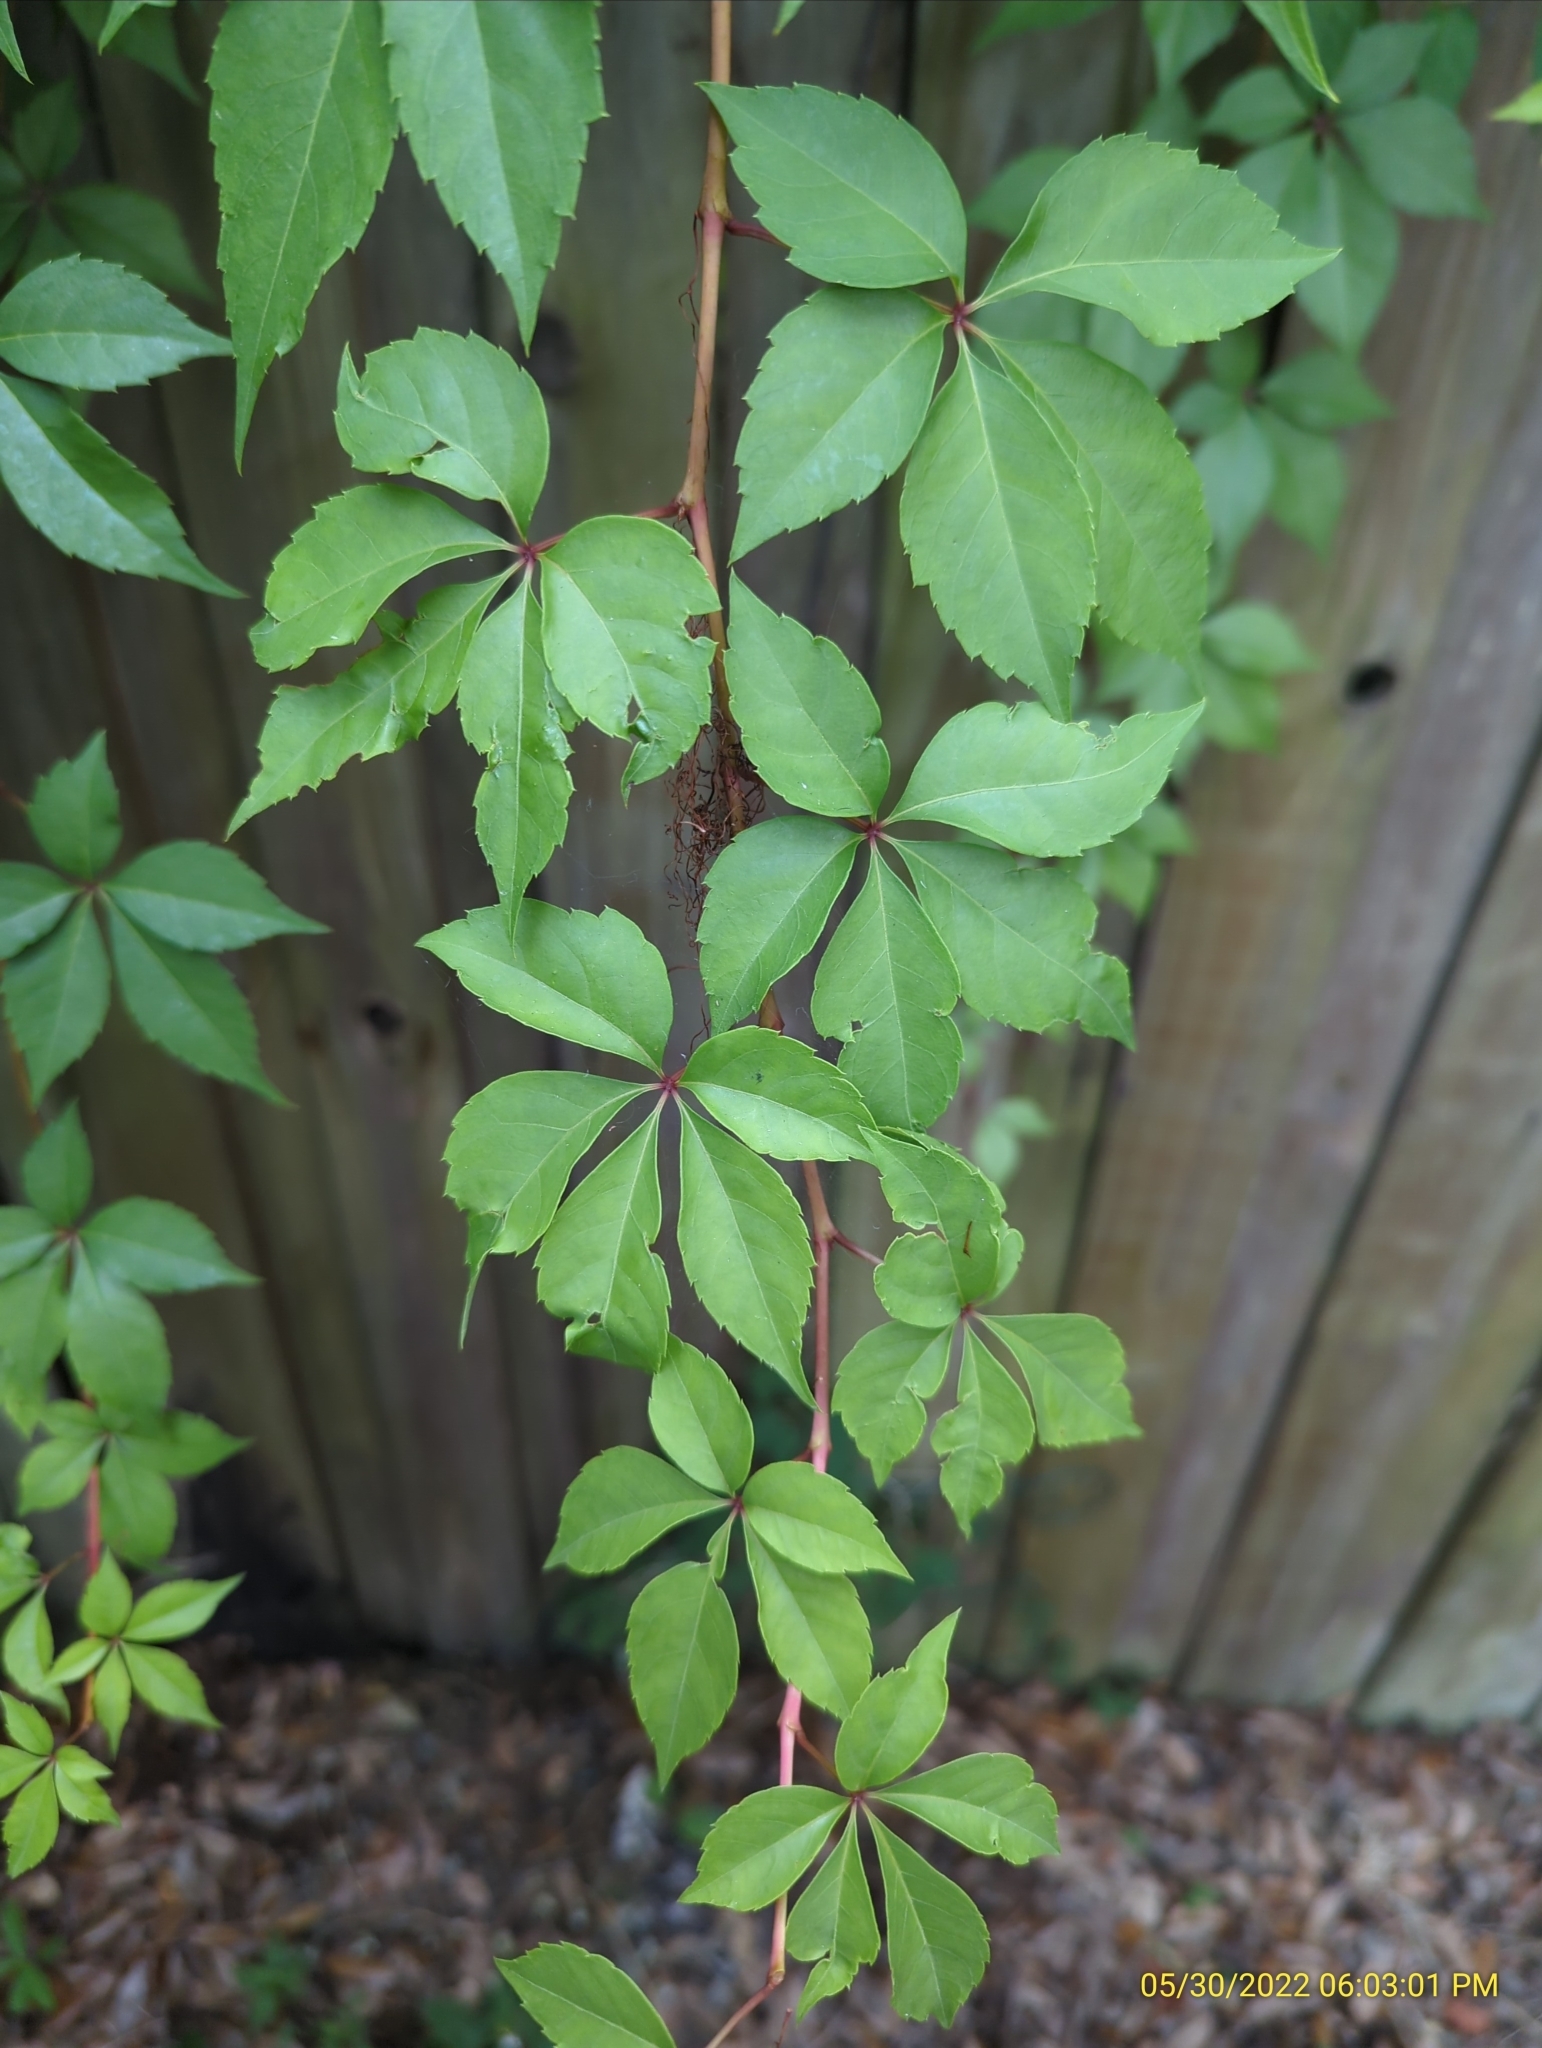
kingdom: Plantae
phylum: Tracheophyta
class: Magnoliopsida
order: Vitales
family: Vitaceae
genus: Parthenocissus
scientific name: Parthenocissus quinquefolia
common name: Virginia-creeper
